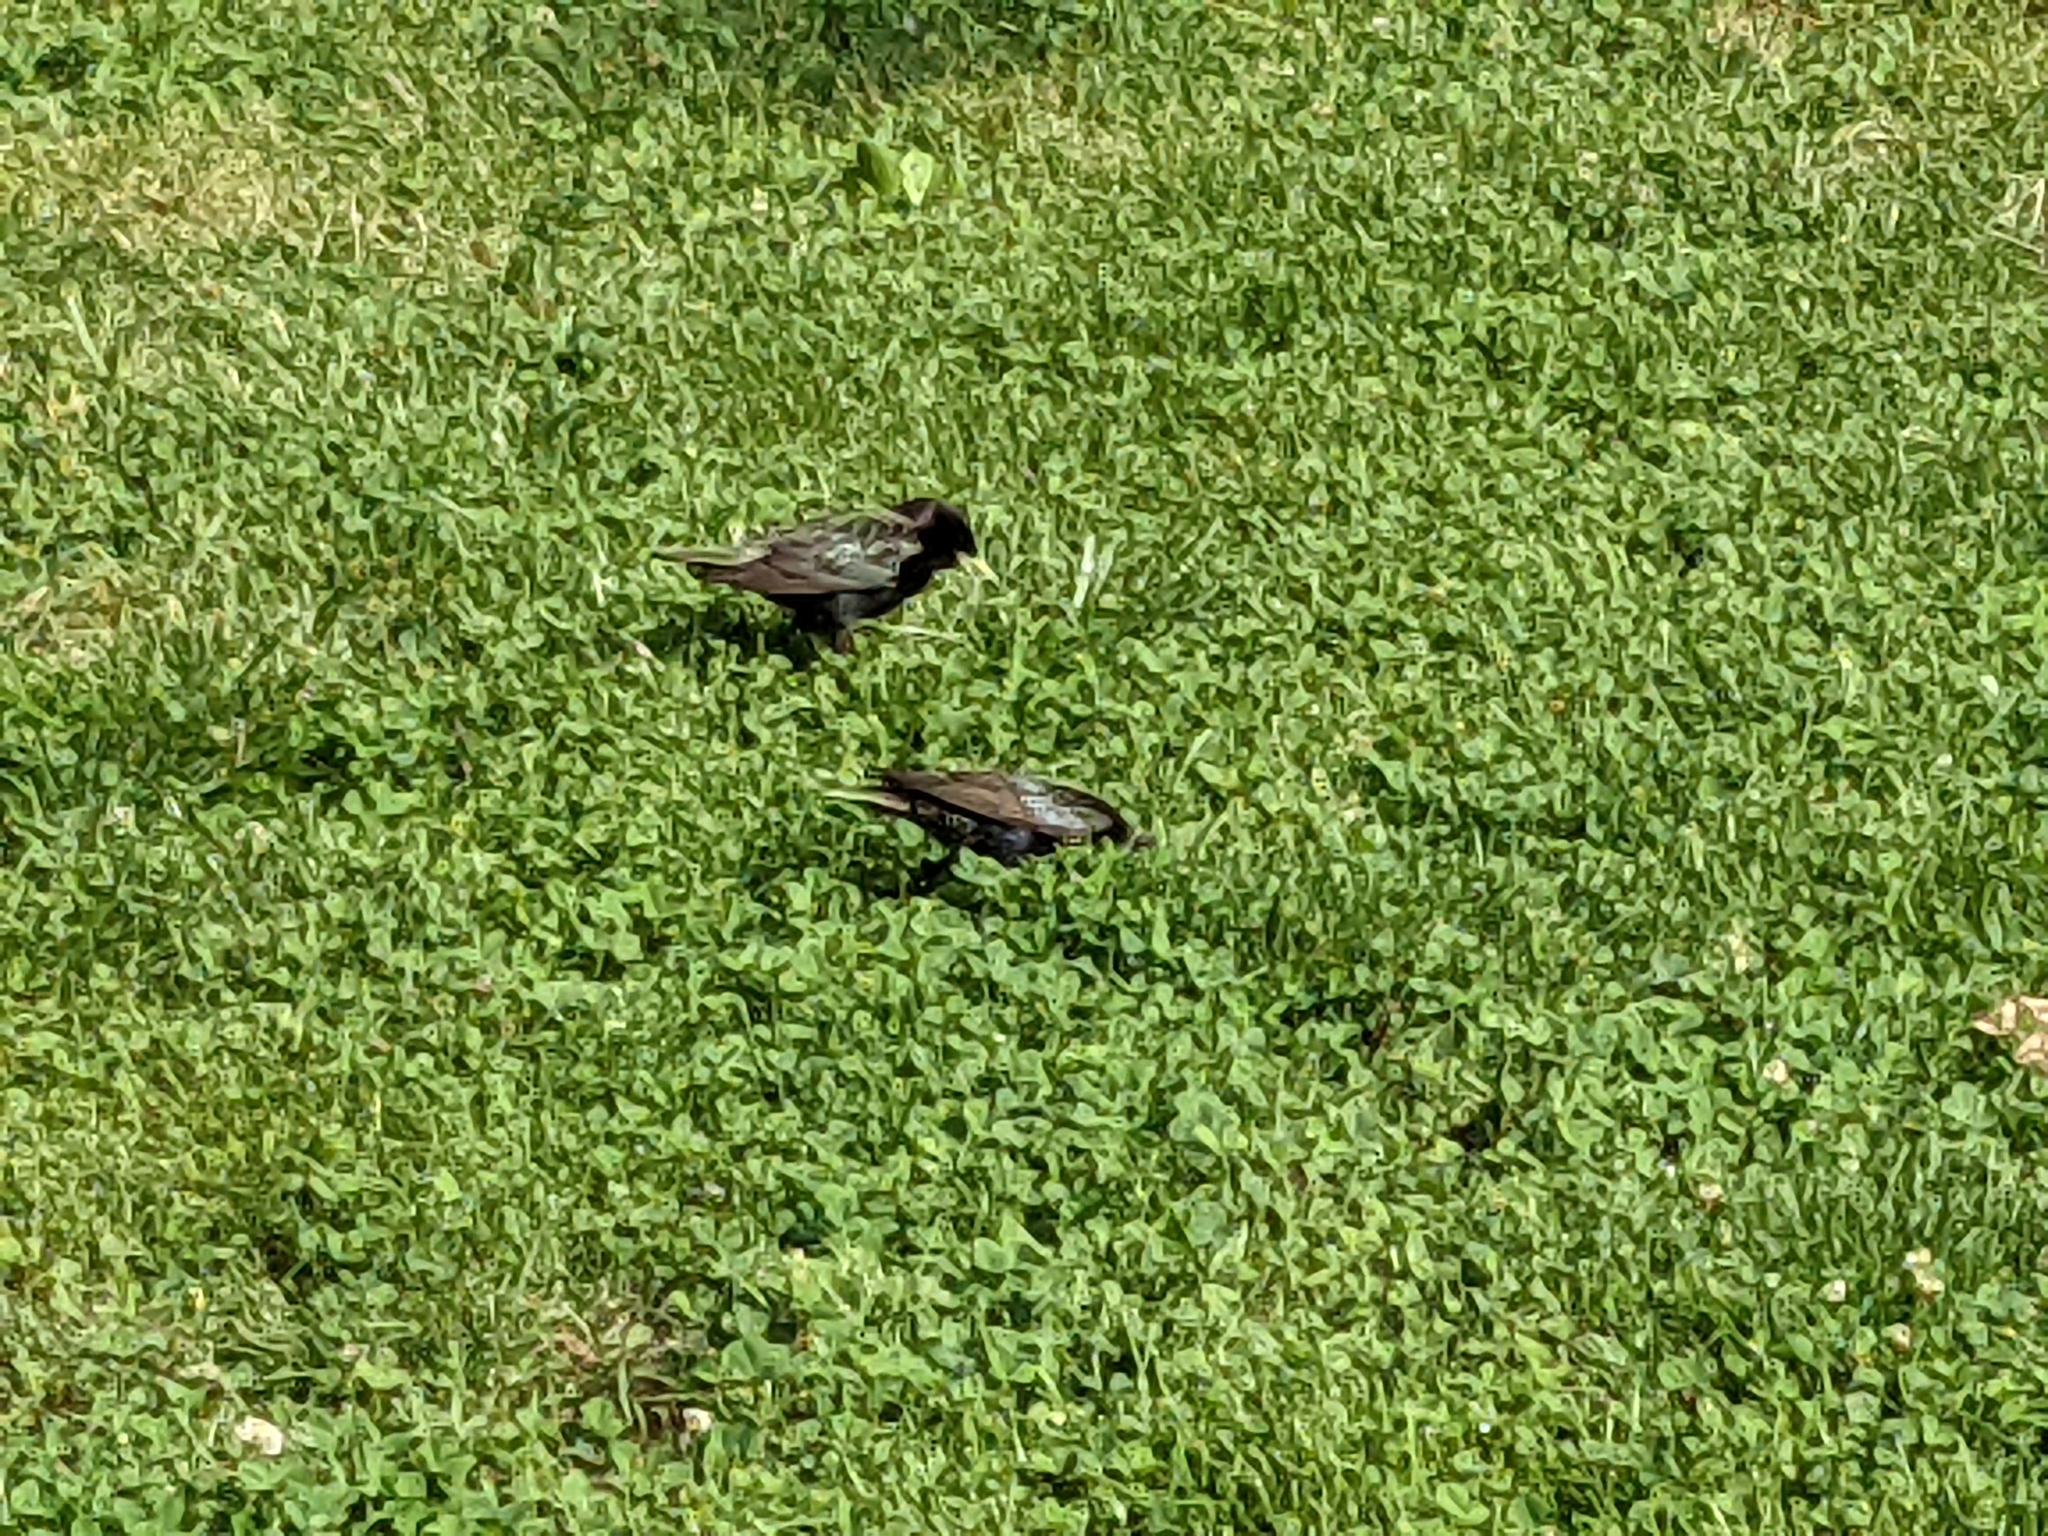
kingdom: Animalia
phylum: Chordata
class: Aves
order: Passeriformes
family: Sturnidae
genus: Sturnus
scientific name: Sturnus vulgaris
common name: Common starling
